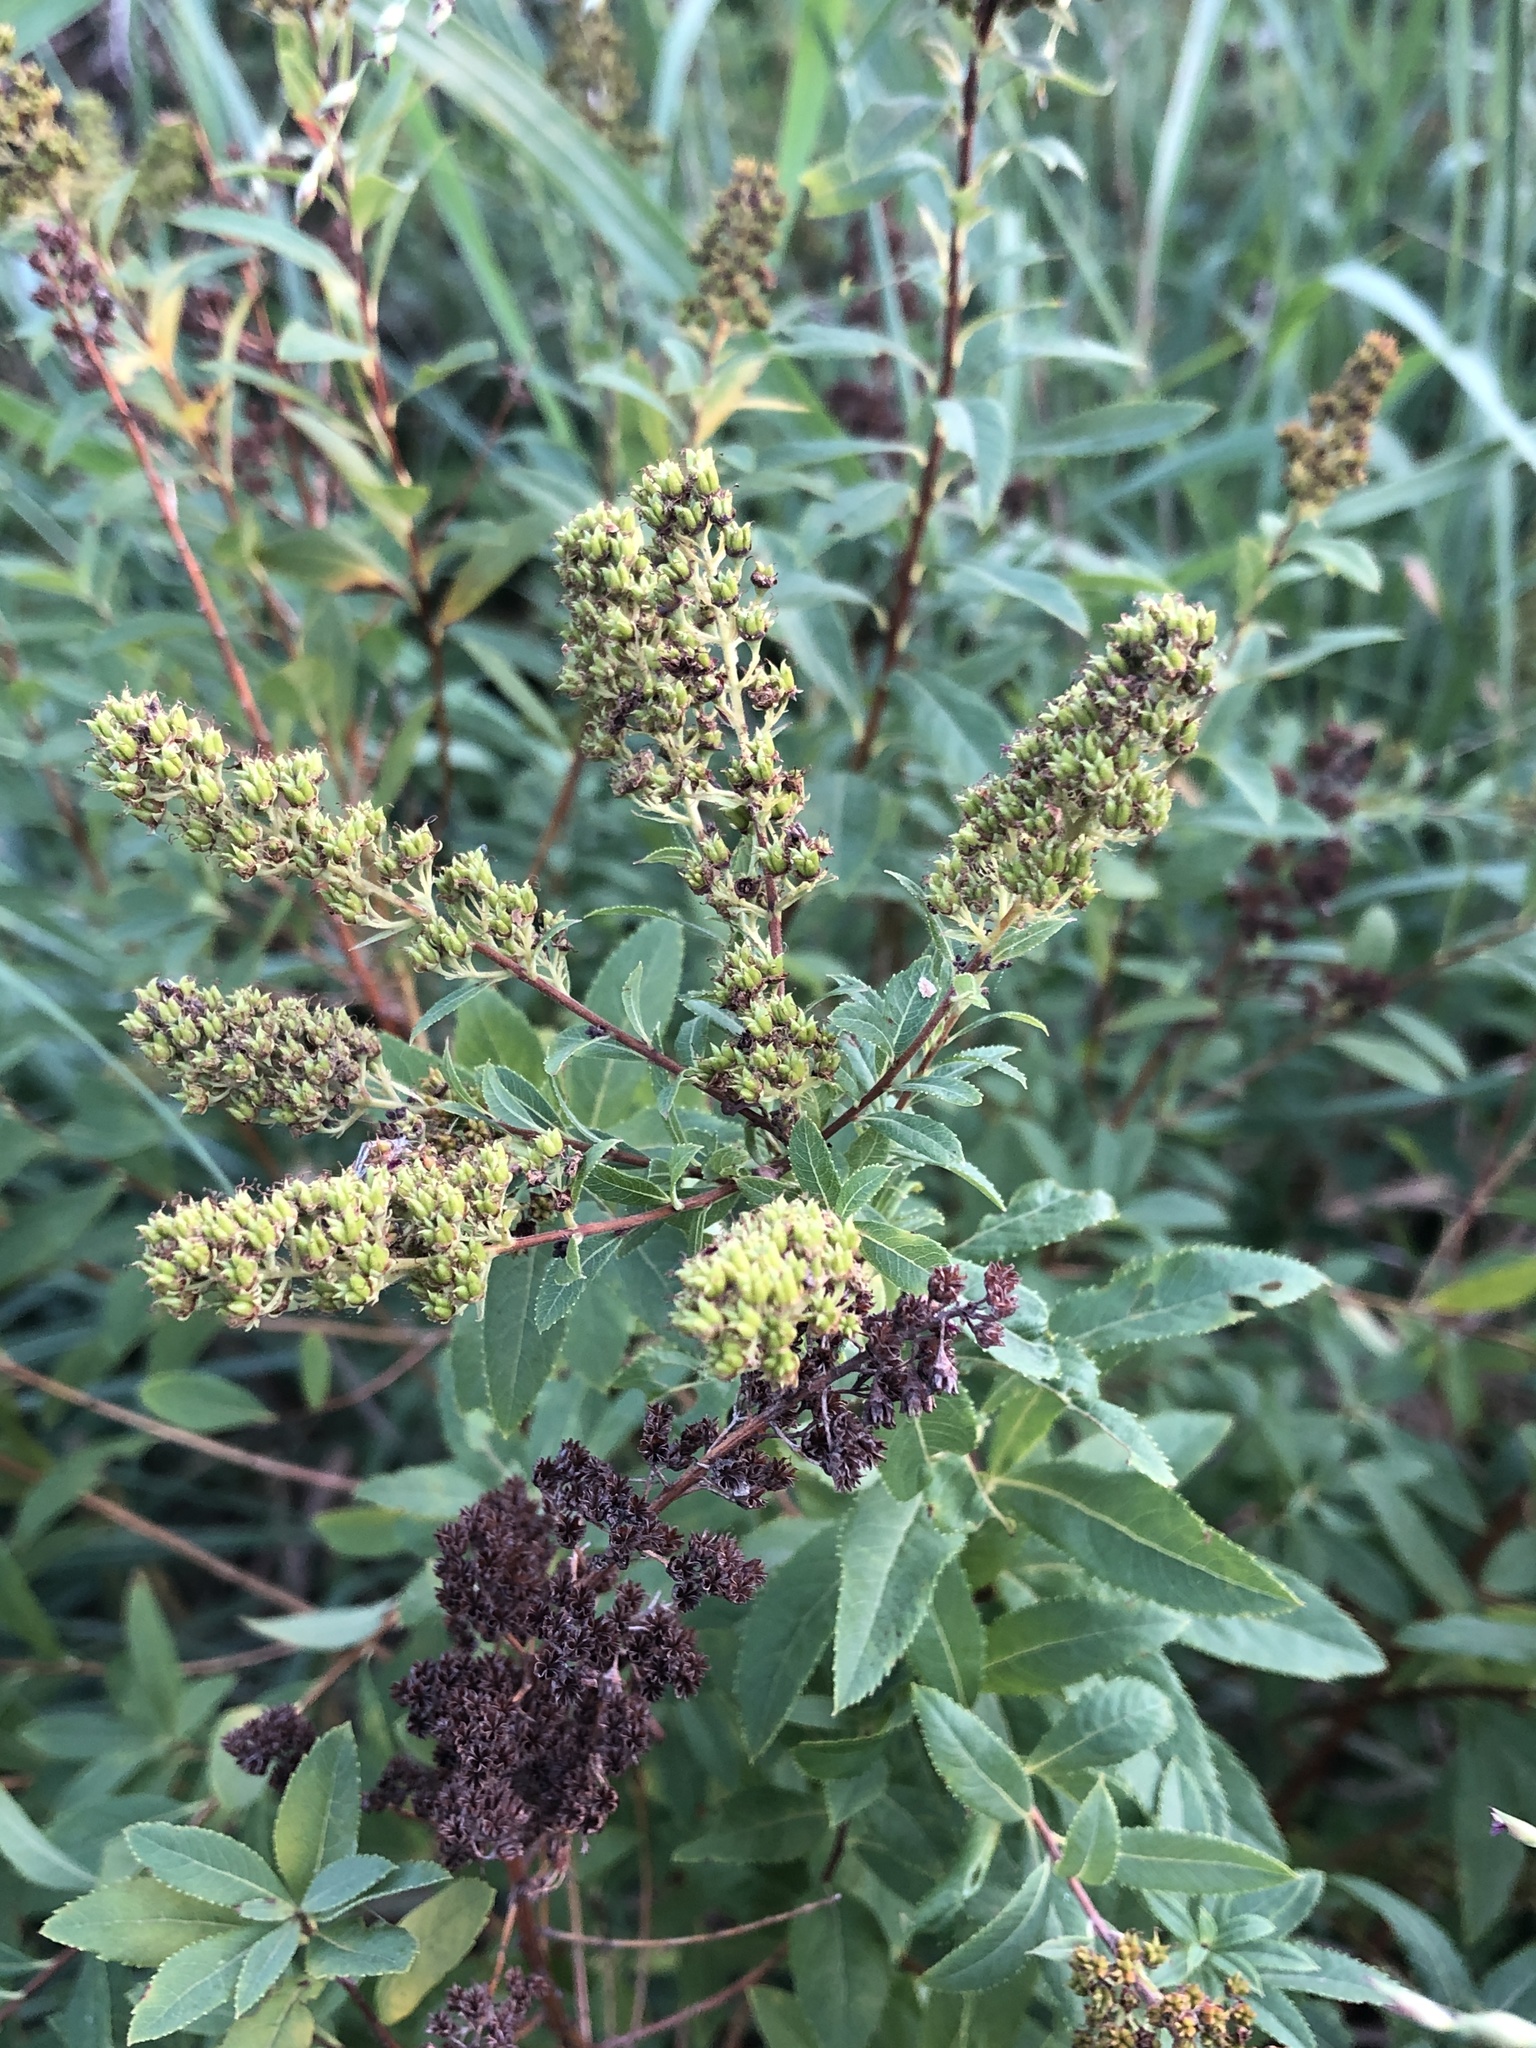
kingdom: Plantae
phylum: Tracheophyta
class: Magnoliopsida
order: Rosales
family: Rosaceae
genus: Spiraea
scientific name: Spiraea alba
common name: Pale bridewort
